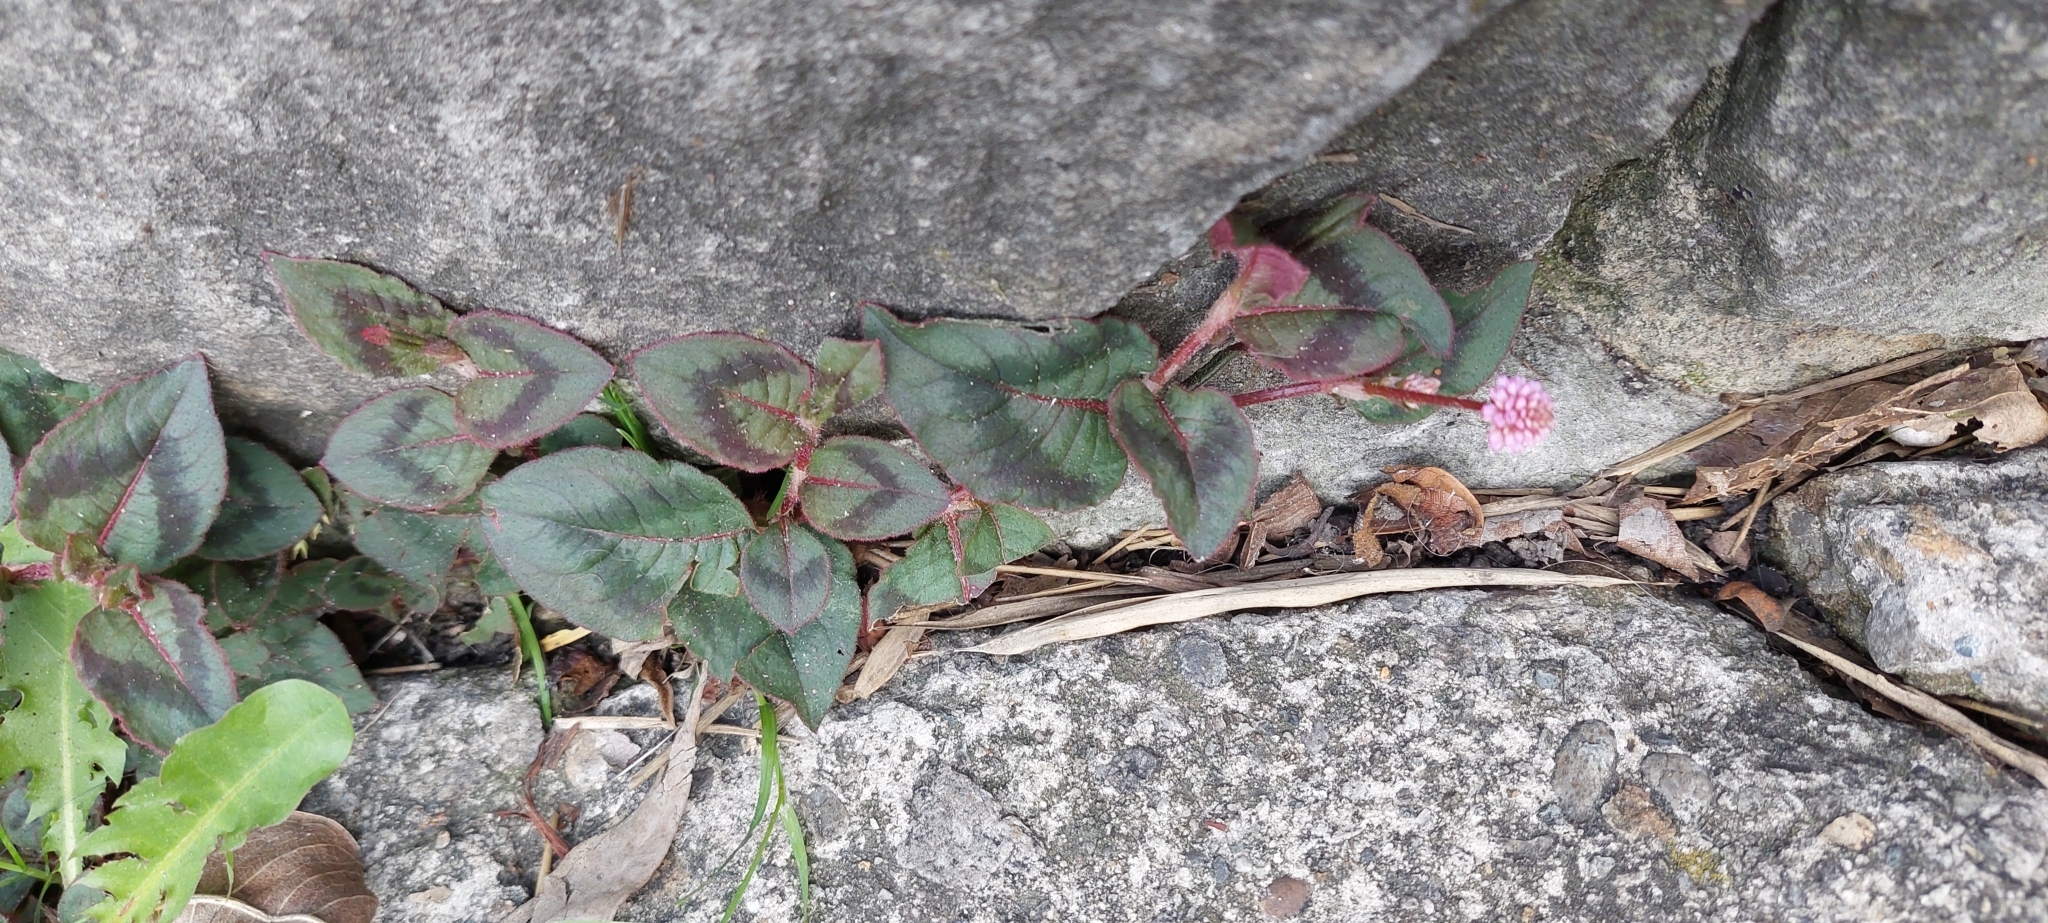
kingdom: Plantae
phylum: Tracheophyta
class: Magnoliopsida
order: Caryophyllales
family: Polygonaceae
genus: Persicaria
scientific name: Persicaria capitata
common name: Pinkhead smartweed
